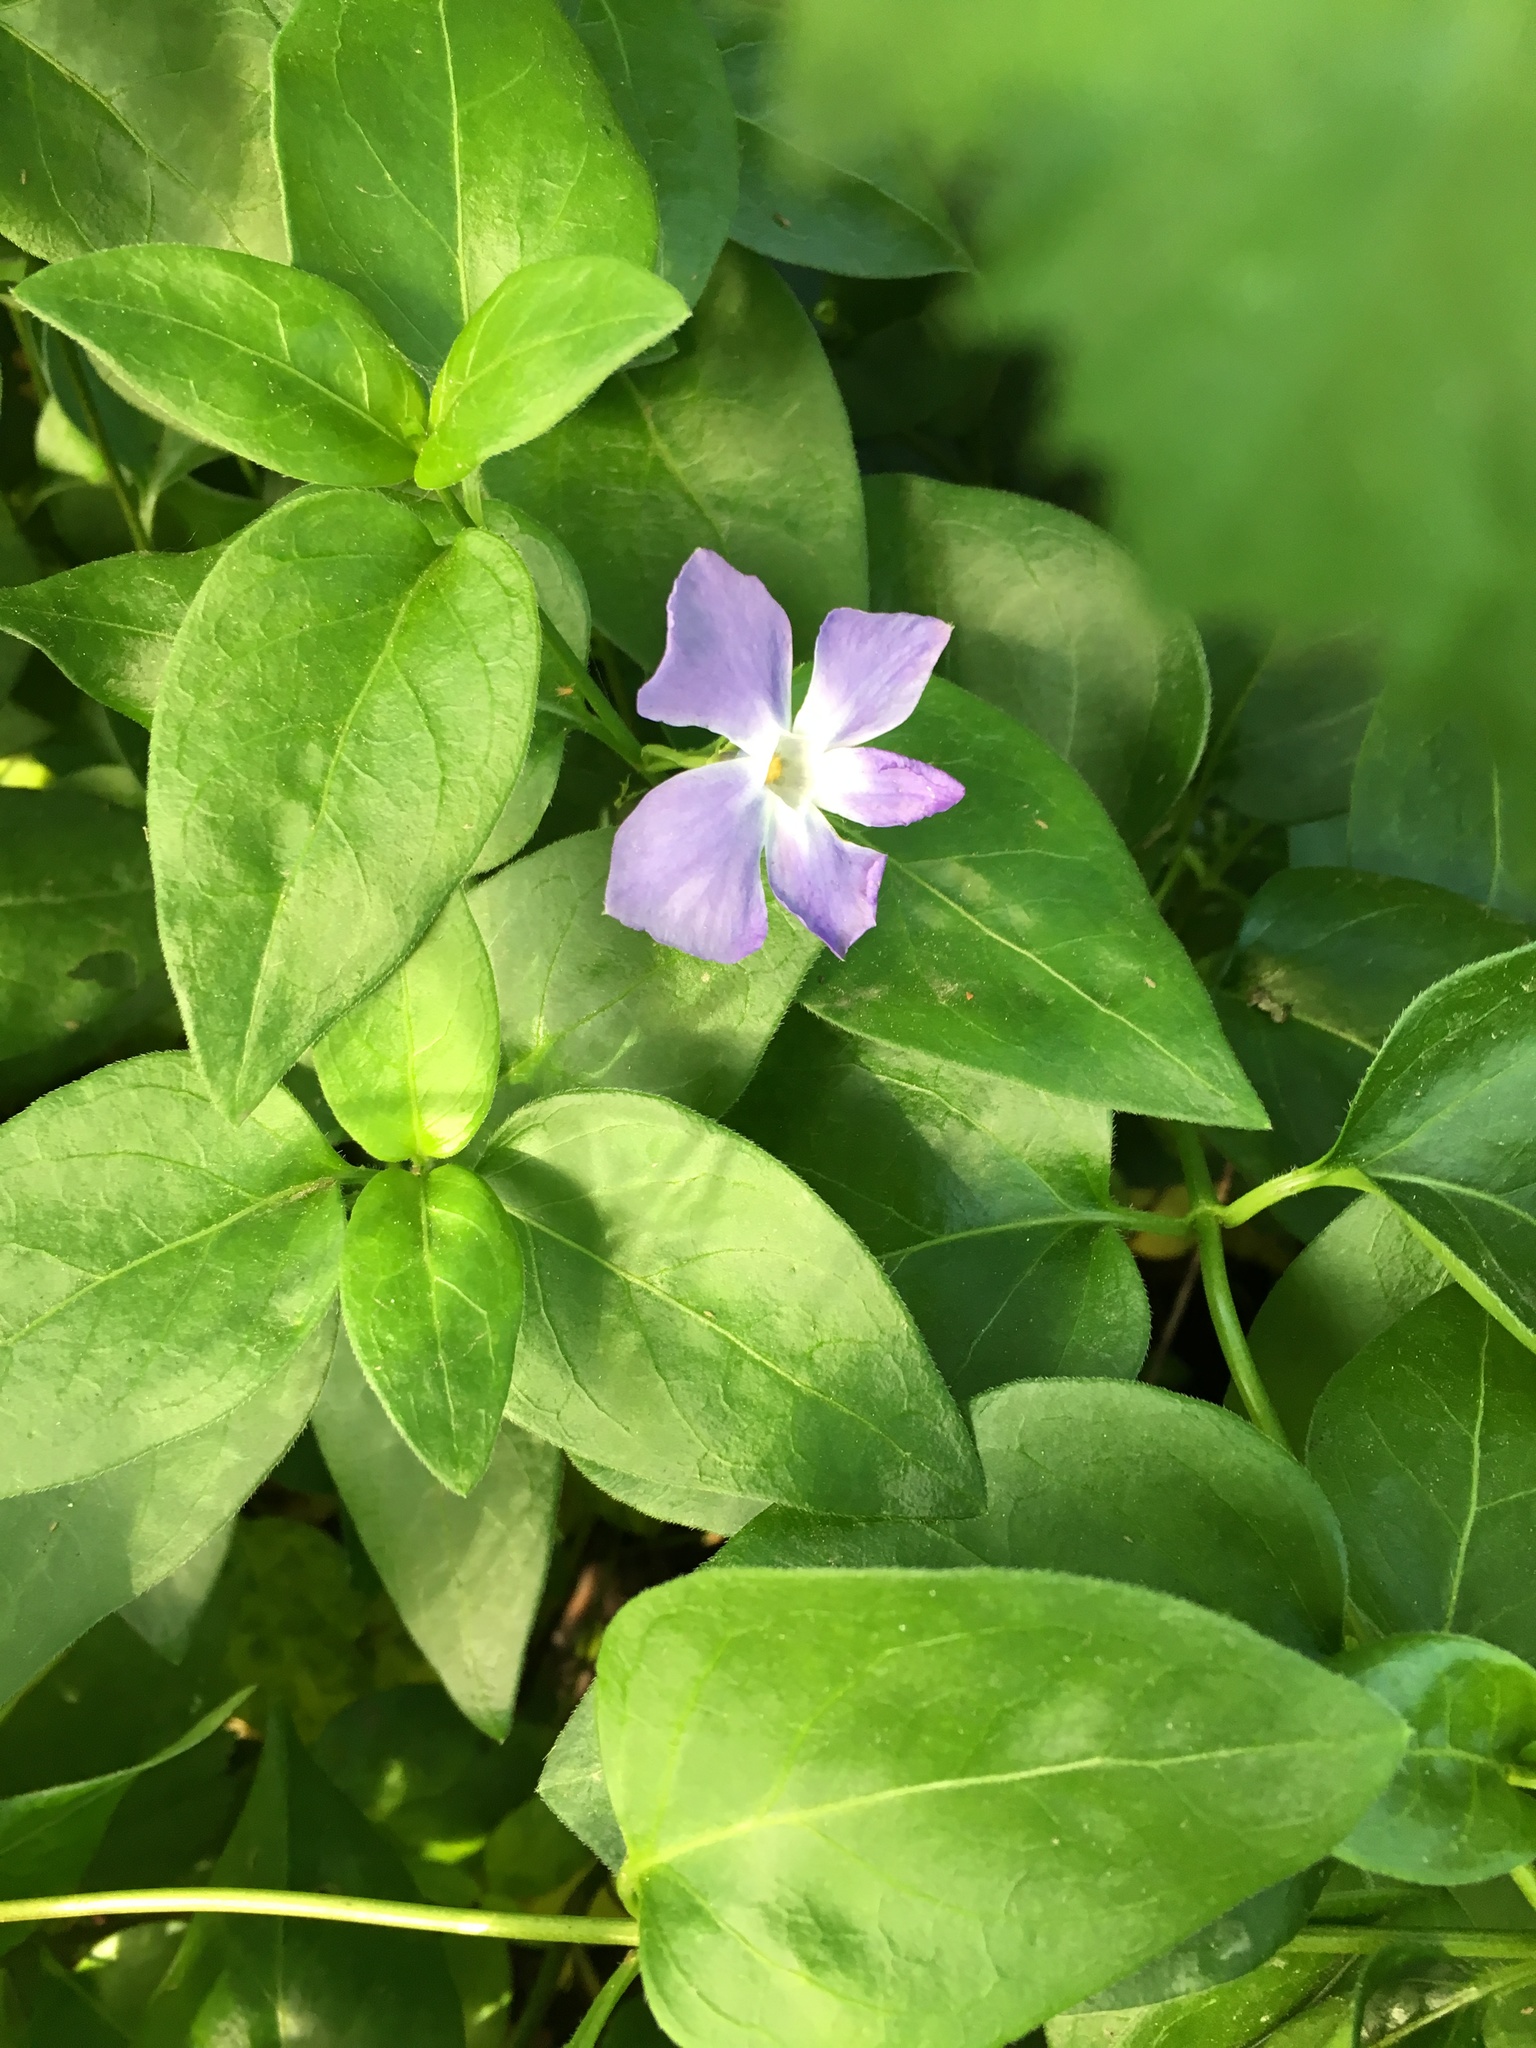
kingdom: Plantae
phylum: Tracheophyta
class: Magnoliopsida
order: Gentianales
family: Apocynaceae
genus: Vinca
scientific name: Vinca major
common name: Greater periwinkle
